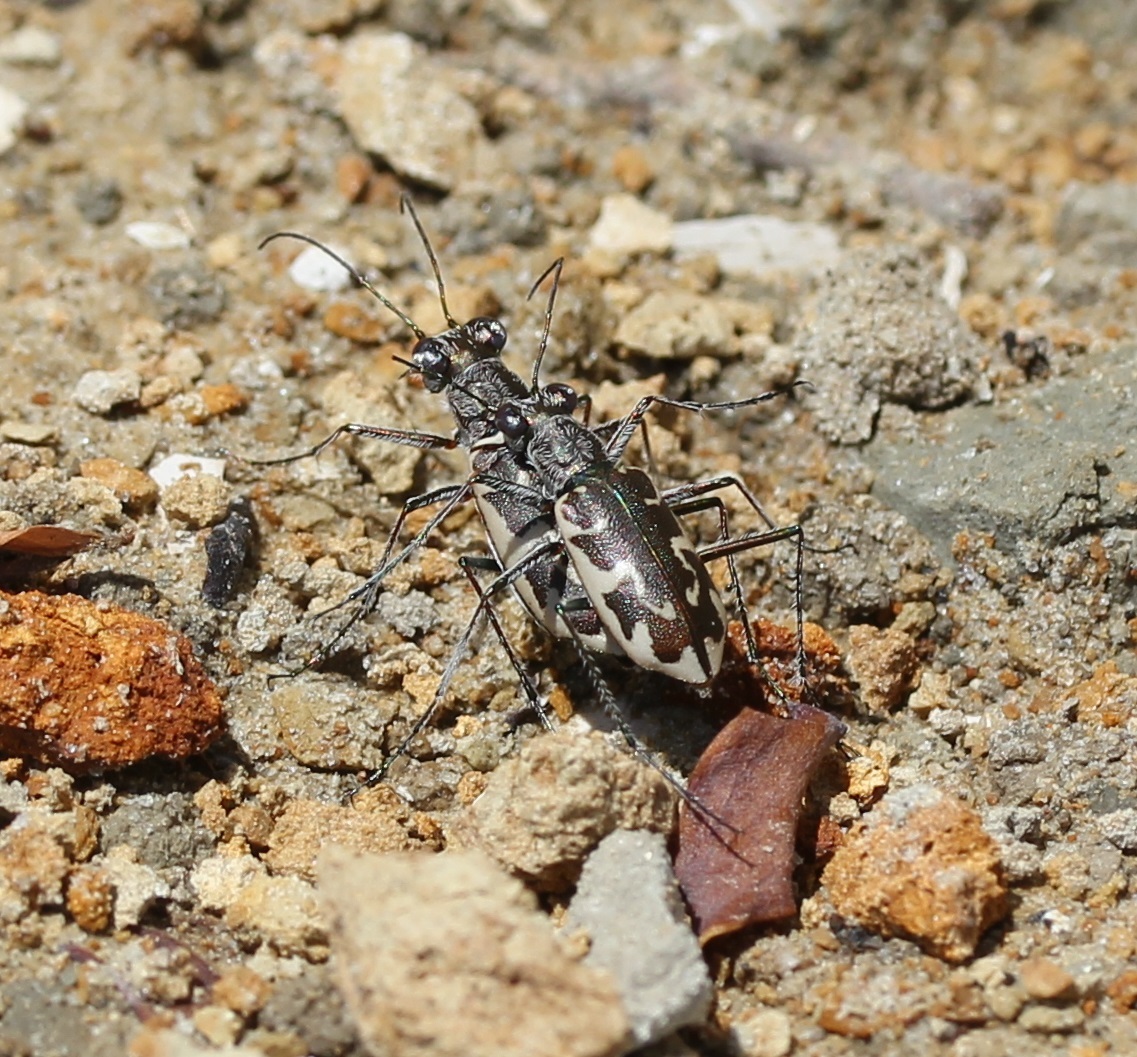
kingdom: Animalia
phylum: Arthropoda
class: Insecta
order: Coleoptera
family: Carabidae
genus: Ellipsoptera
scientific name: Ellipsoptera puritana
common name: Puritan tiger beetle
